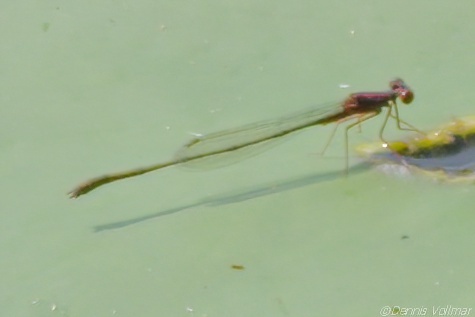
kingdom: Animalia
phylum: Arthropoda
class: Insecta
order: Odonata
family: Coenagrionidae
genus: Enallagma
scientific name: Enallagma dubium
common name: Burgundy bluet
